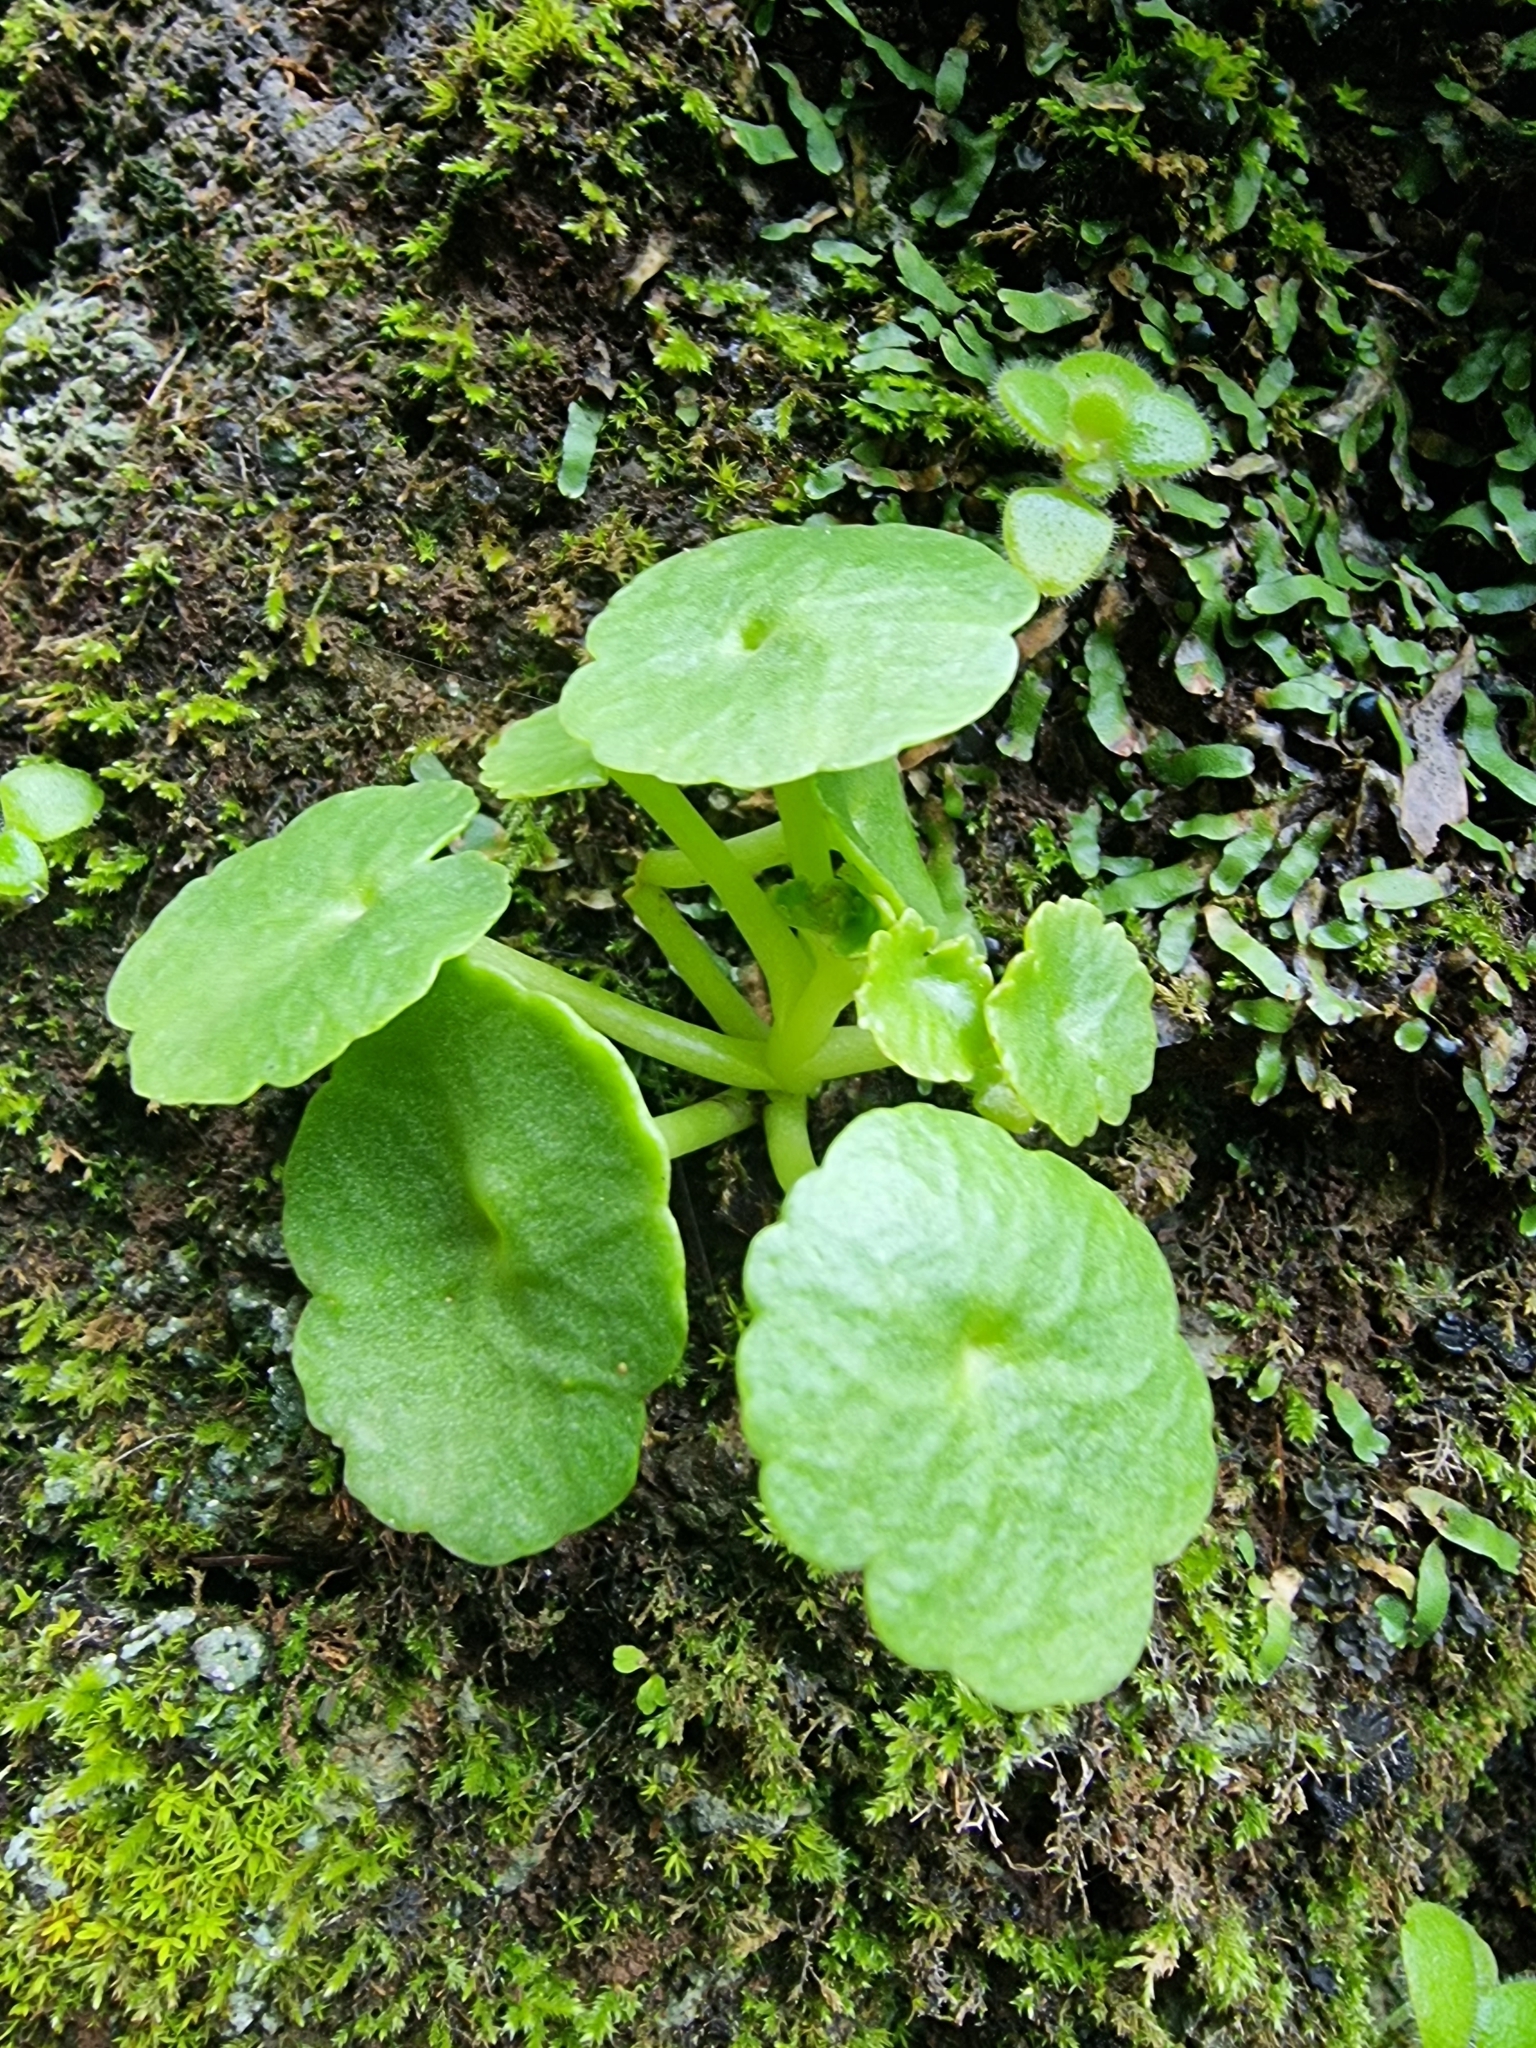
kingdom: Plantae
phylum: Tracheophyta
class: Magnoliopsida
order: Saxifragales
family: Crassulaceae
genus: Umbilicus
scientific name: Umbilicus rupestris
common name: Navelwort
